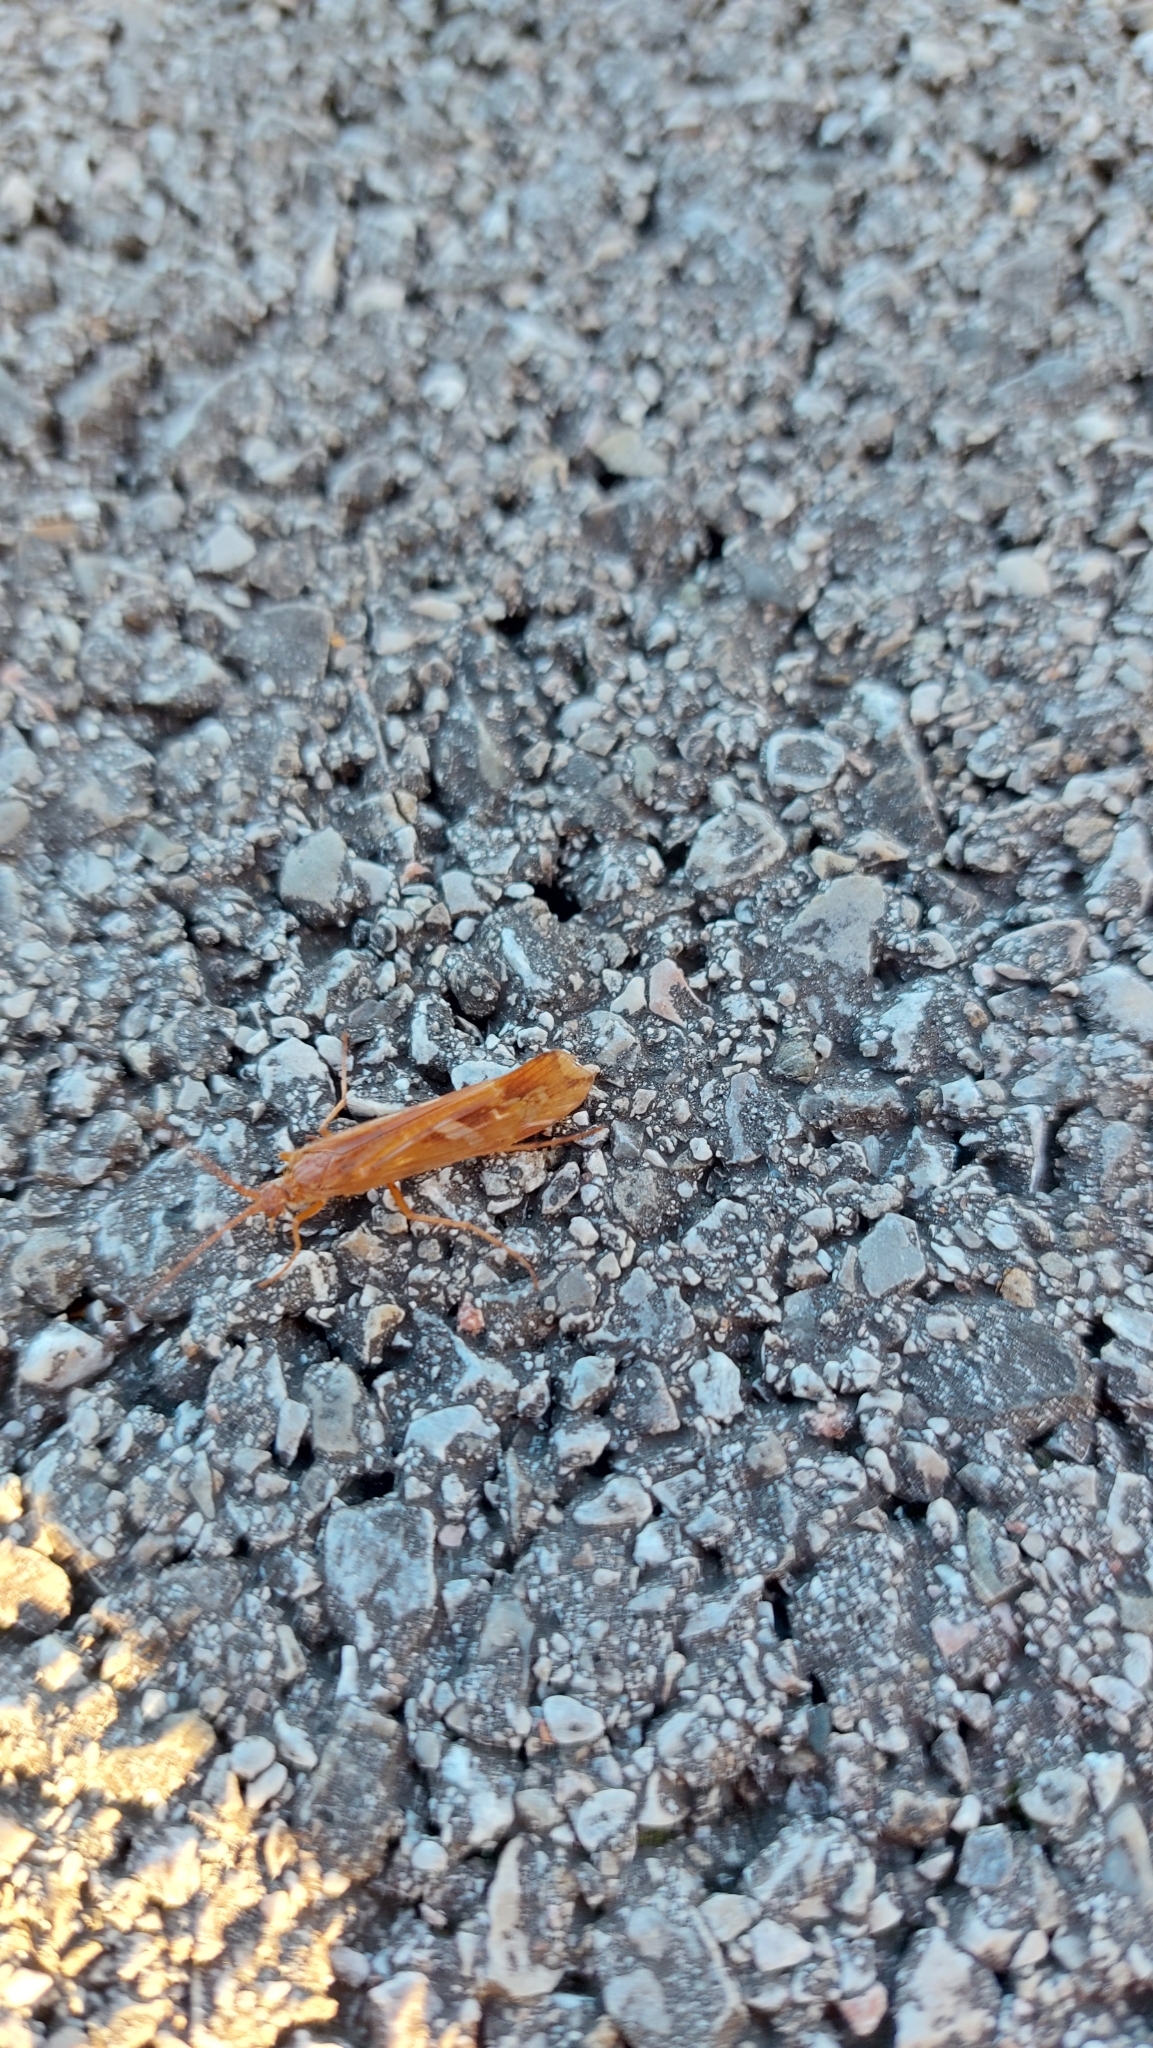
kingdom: Animalia
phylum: Arthropoda
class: Insecta
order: Trichoptera
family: Limnephilidae
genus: Limnephilus
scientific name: Limnephilus lunatus
